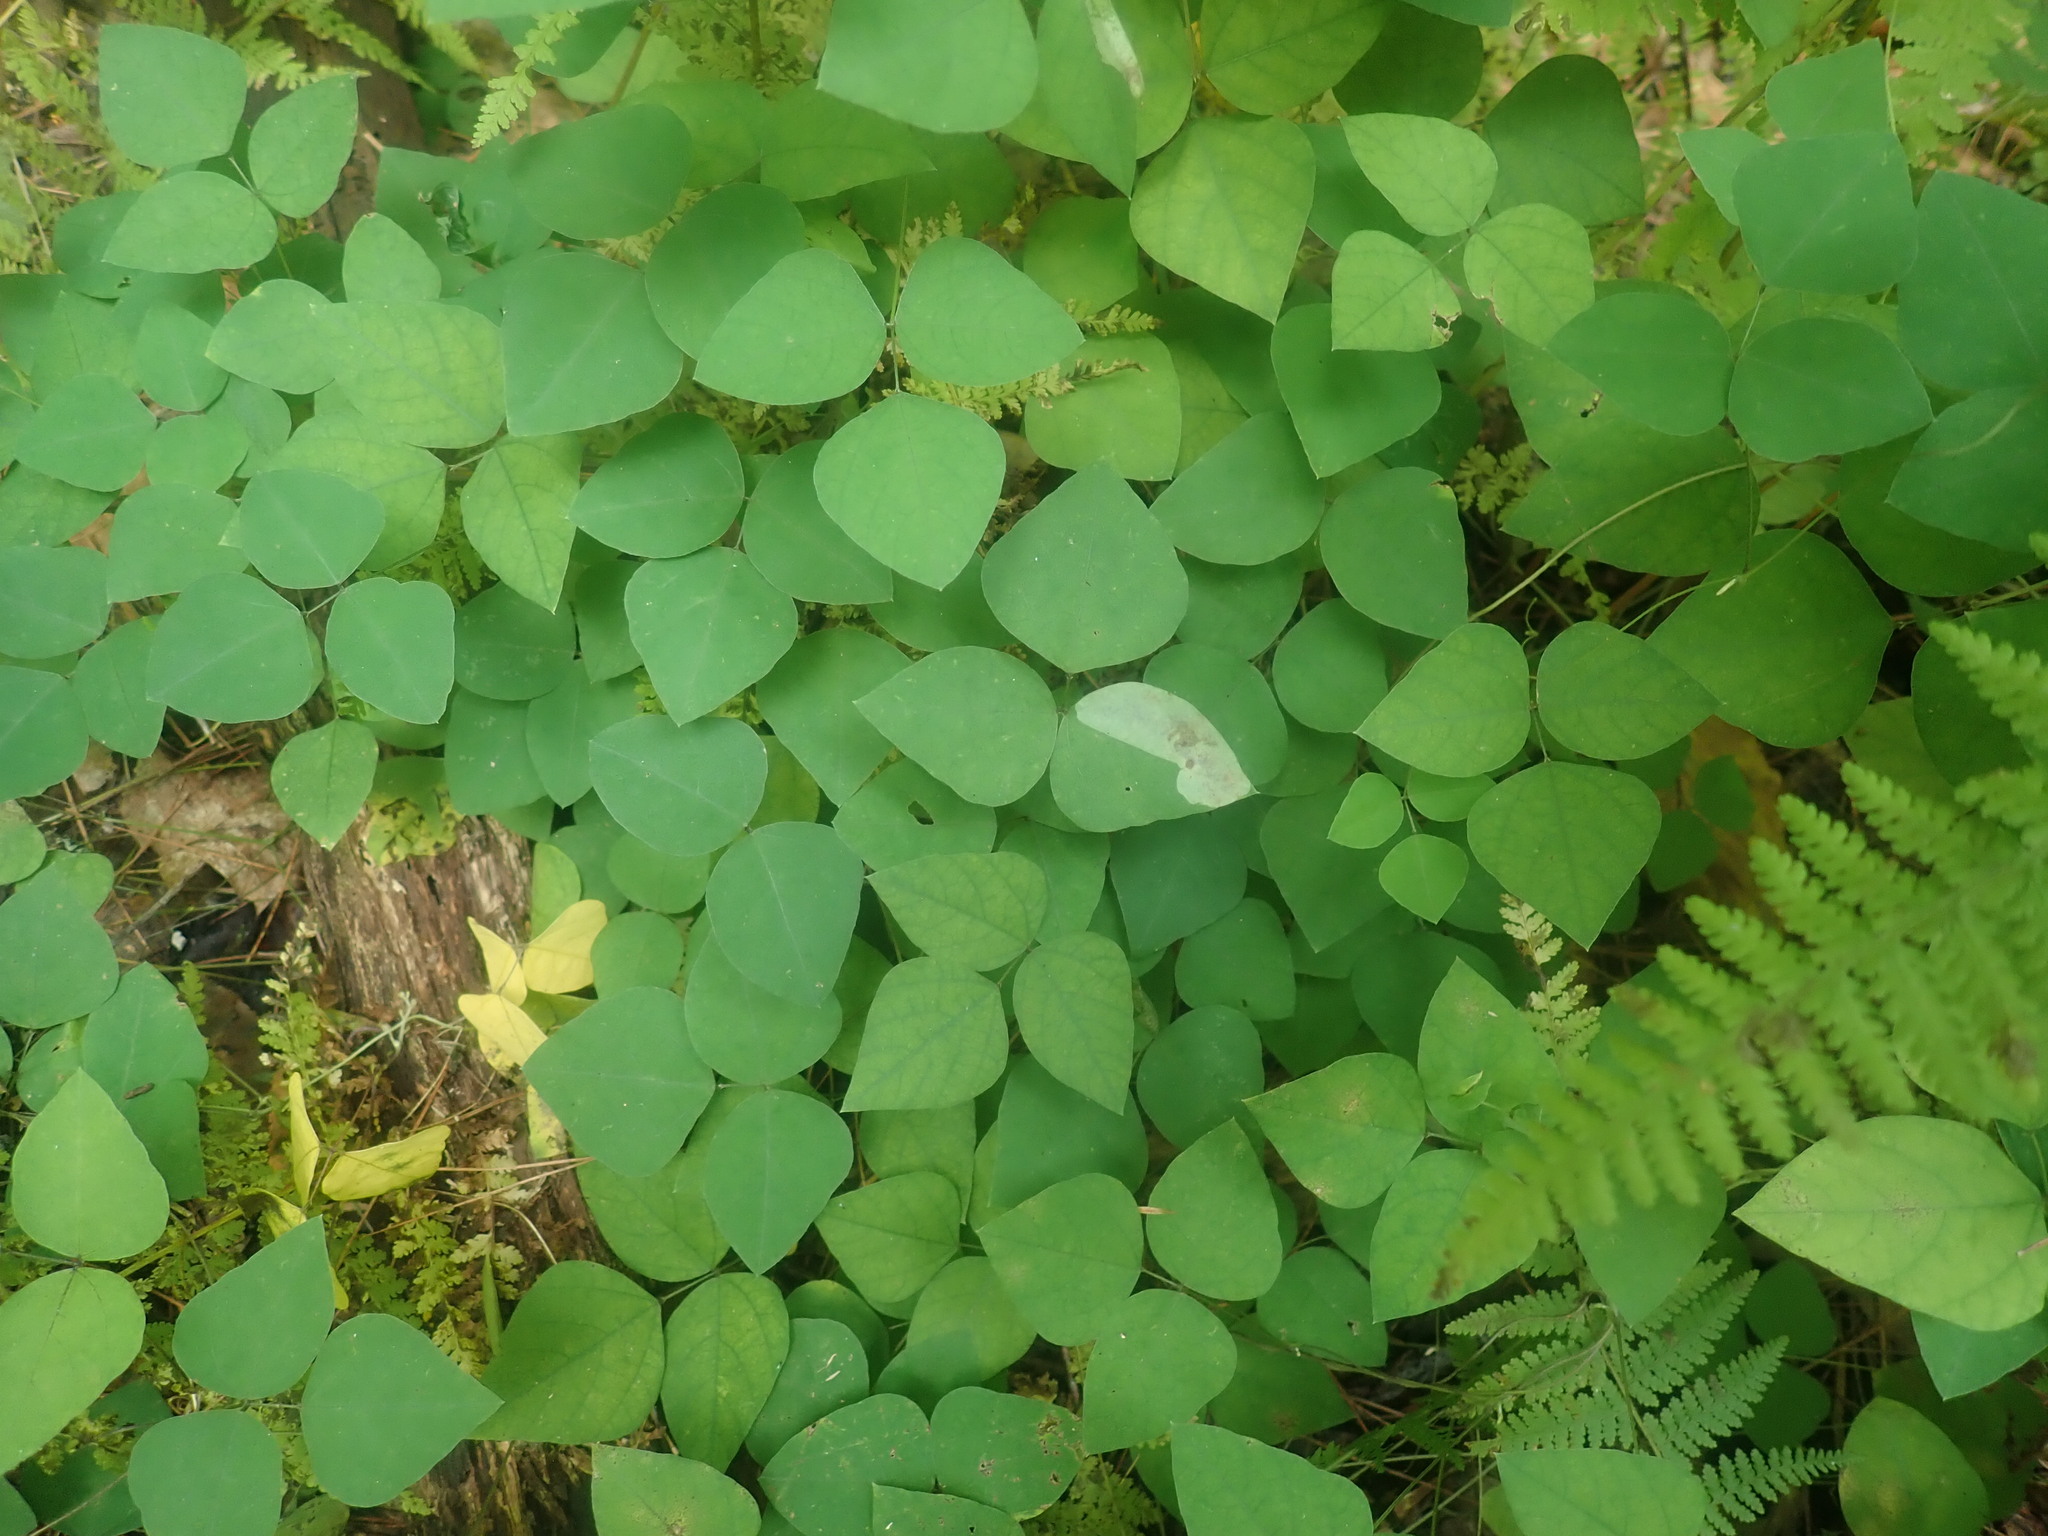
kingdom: Plantae
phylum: Tracheophyta
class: Magnoliopsida
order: Fabales
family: Fabaceae
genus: Amphicarpaea
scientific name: Amphicarpaea bracteata
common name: American hog peanut
